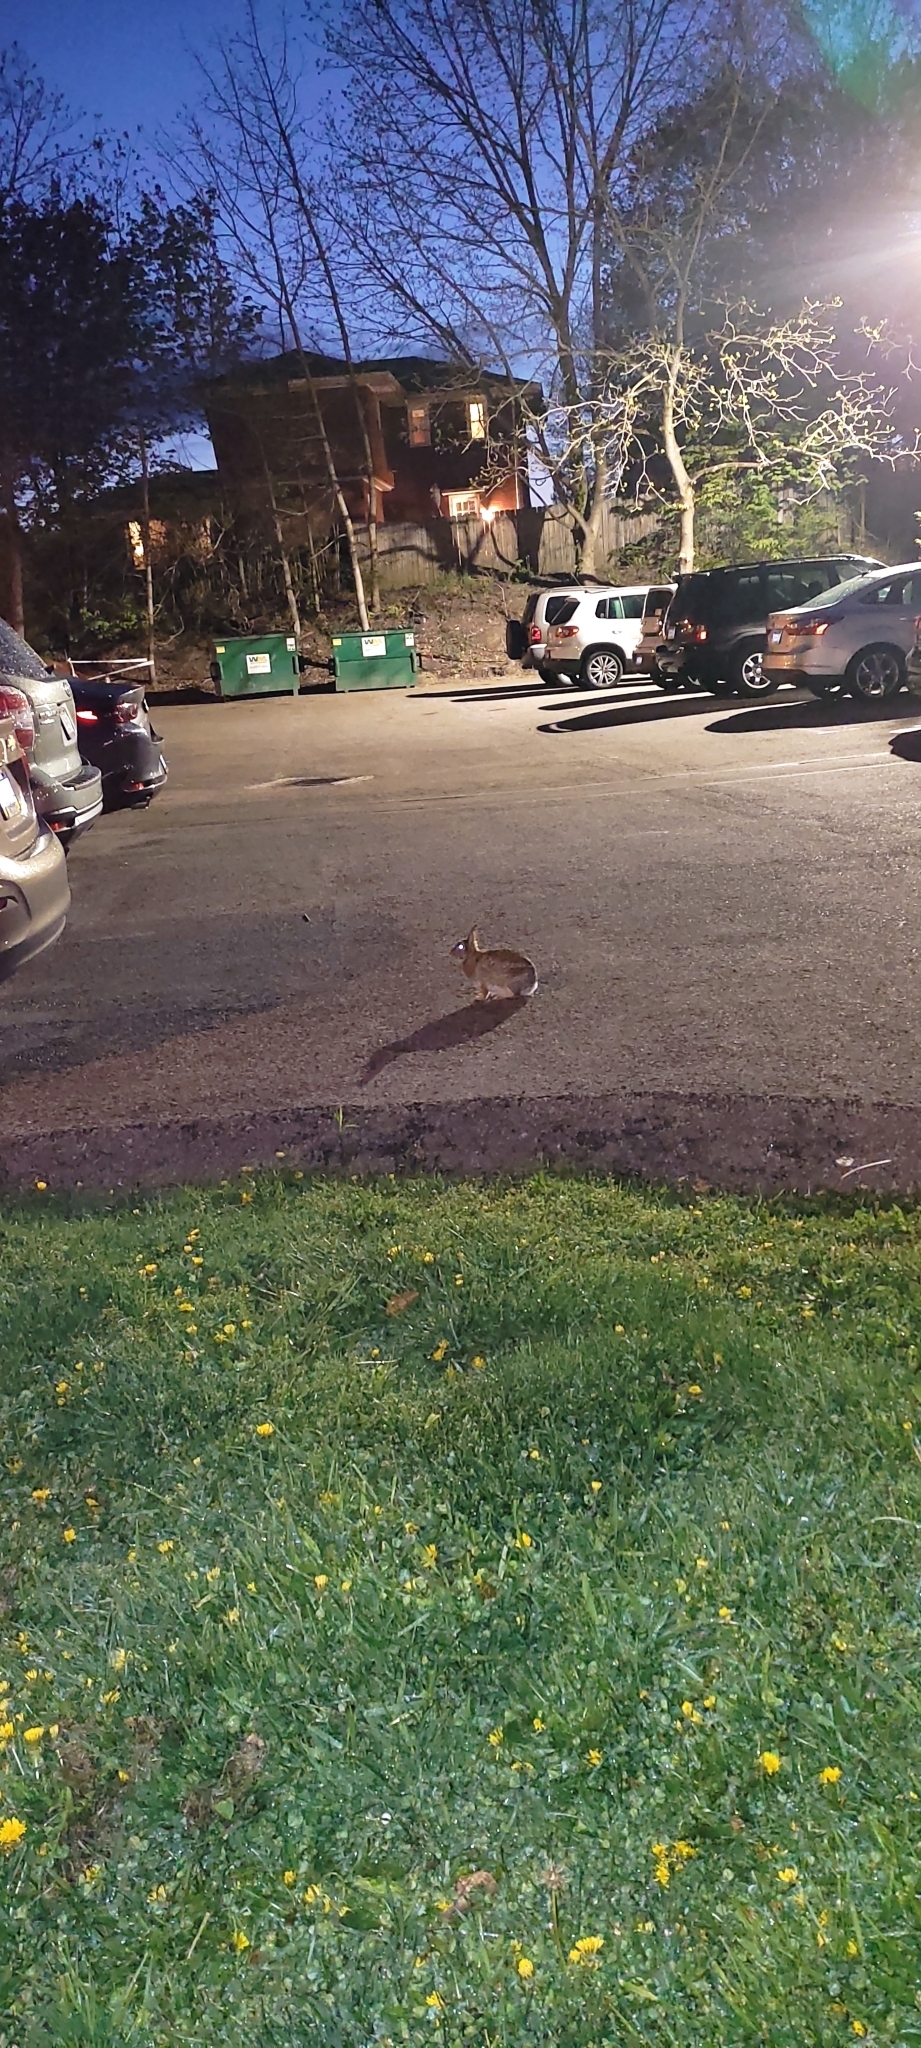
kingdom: Animalia
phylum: Chordata
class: Mammalia
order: Lagomorpha
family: Leporidae
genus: Sylvilagus
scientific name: Sylvilagus floridanus
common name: Eastern cottontail
